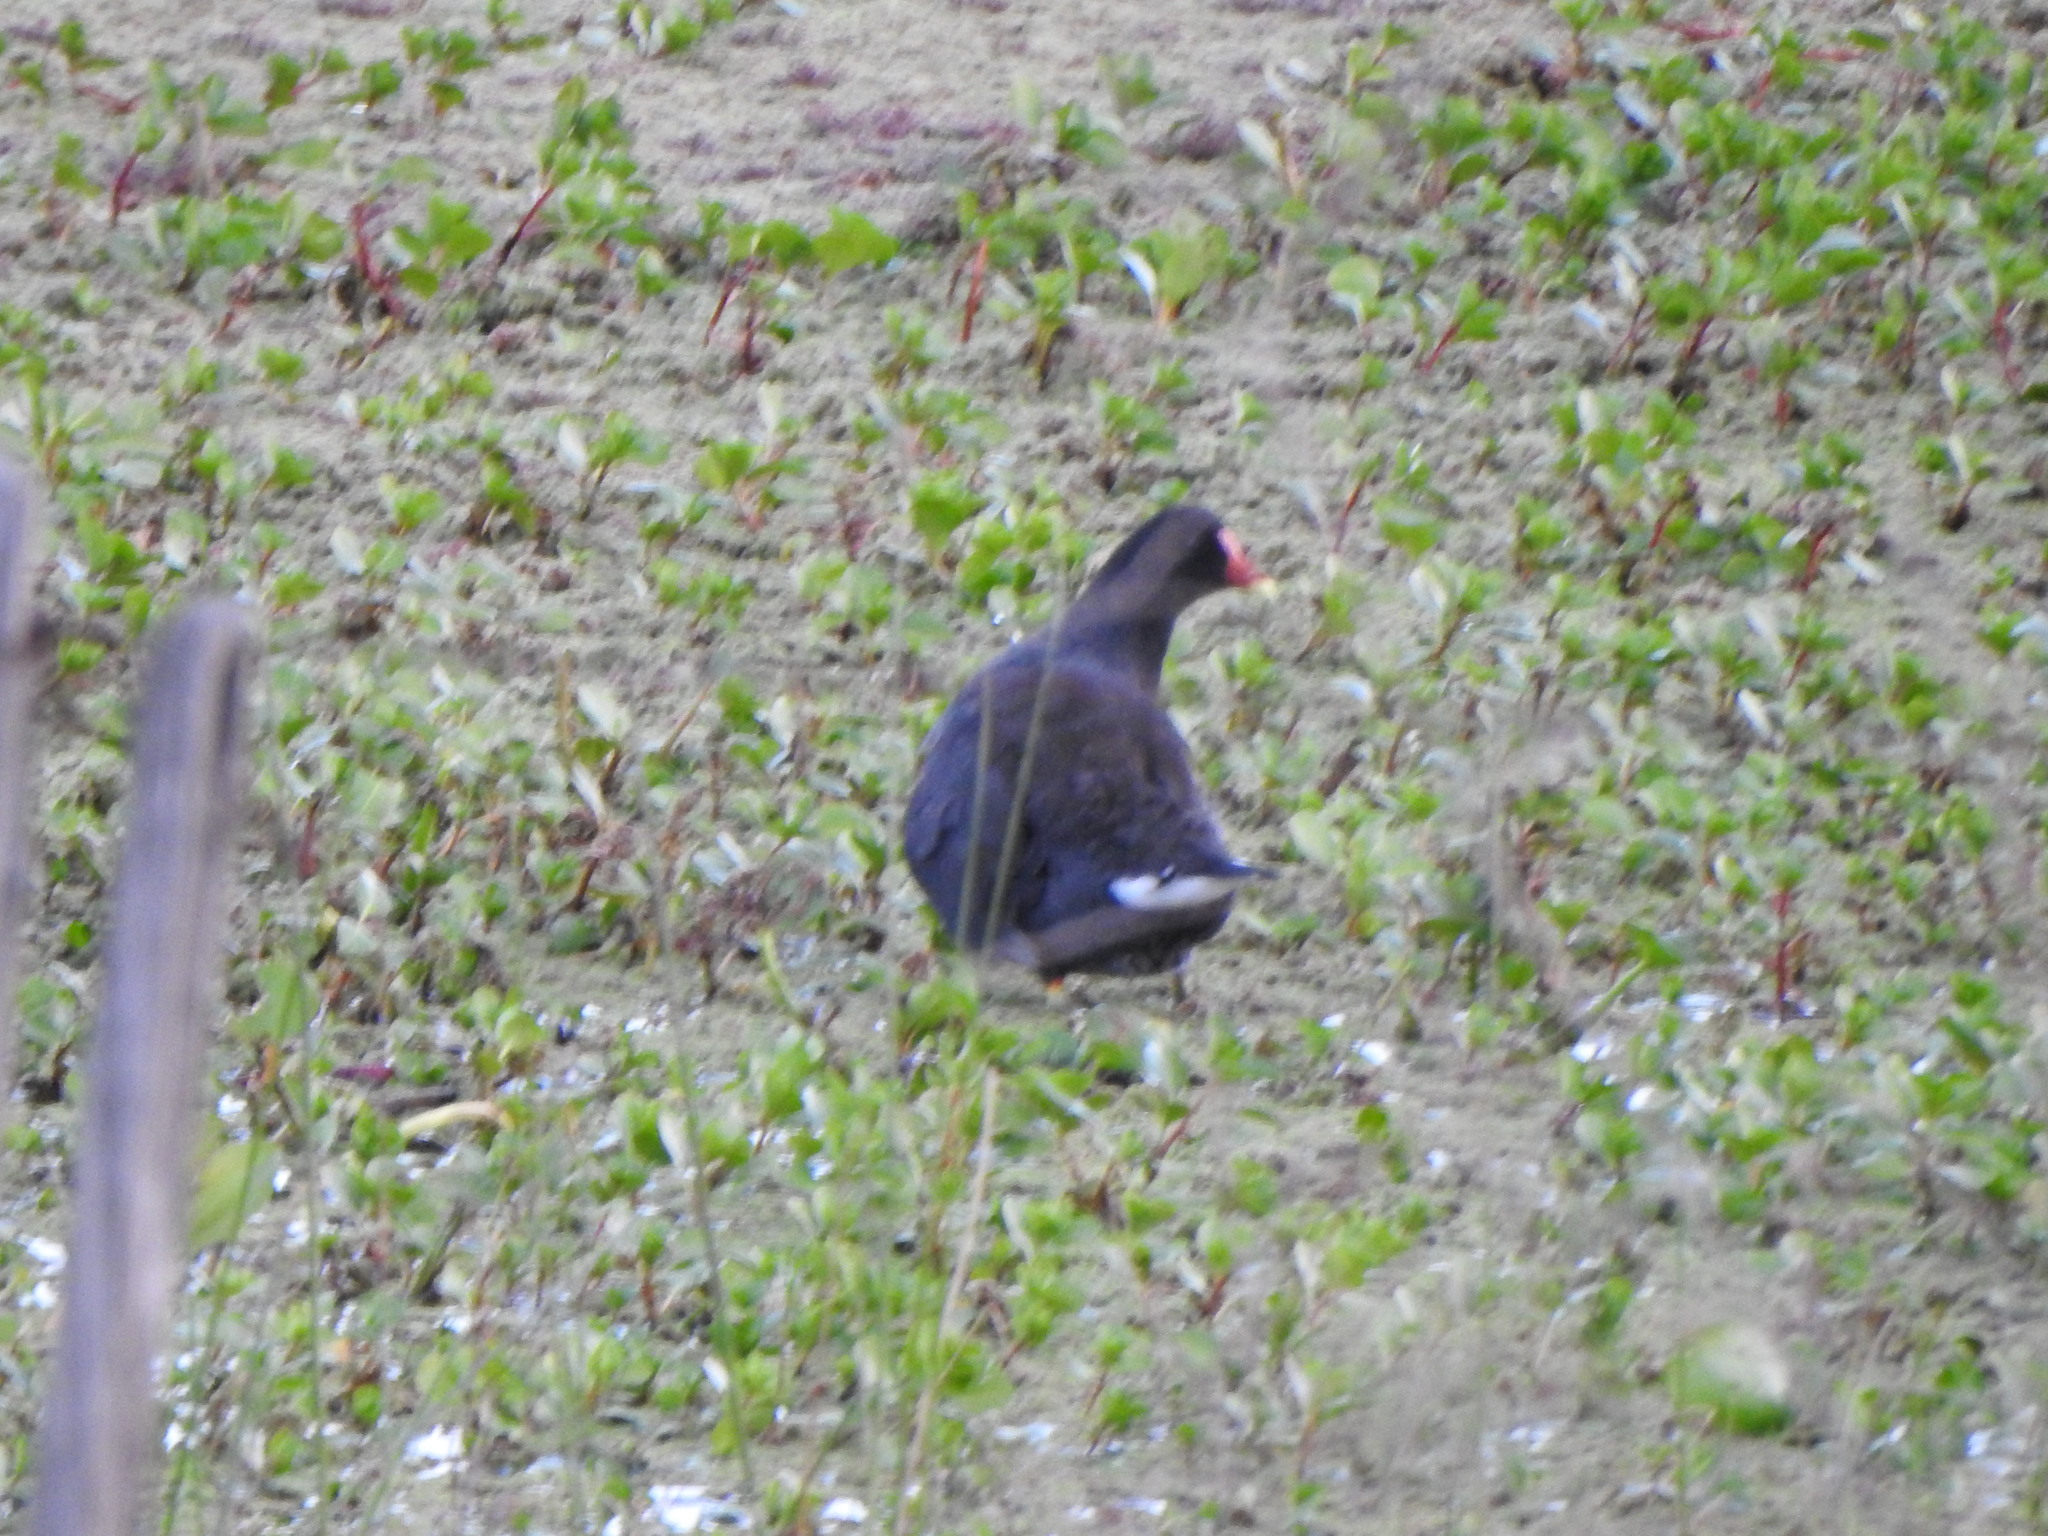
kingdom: Animalia
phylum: Chordata
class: Aves
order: Gruiformes
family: Rallidae
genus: Gallinula
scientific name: Gallinula chloropus
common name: Common moorhen
